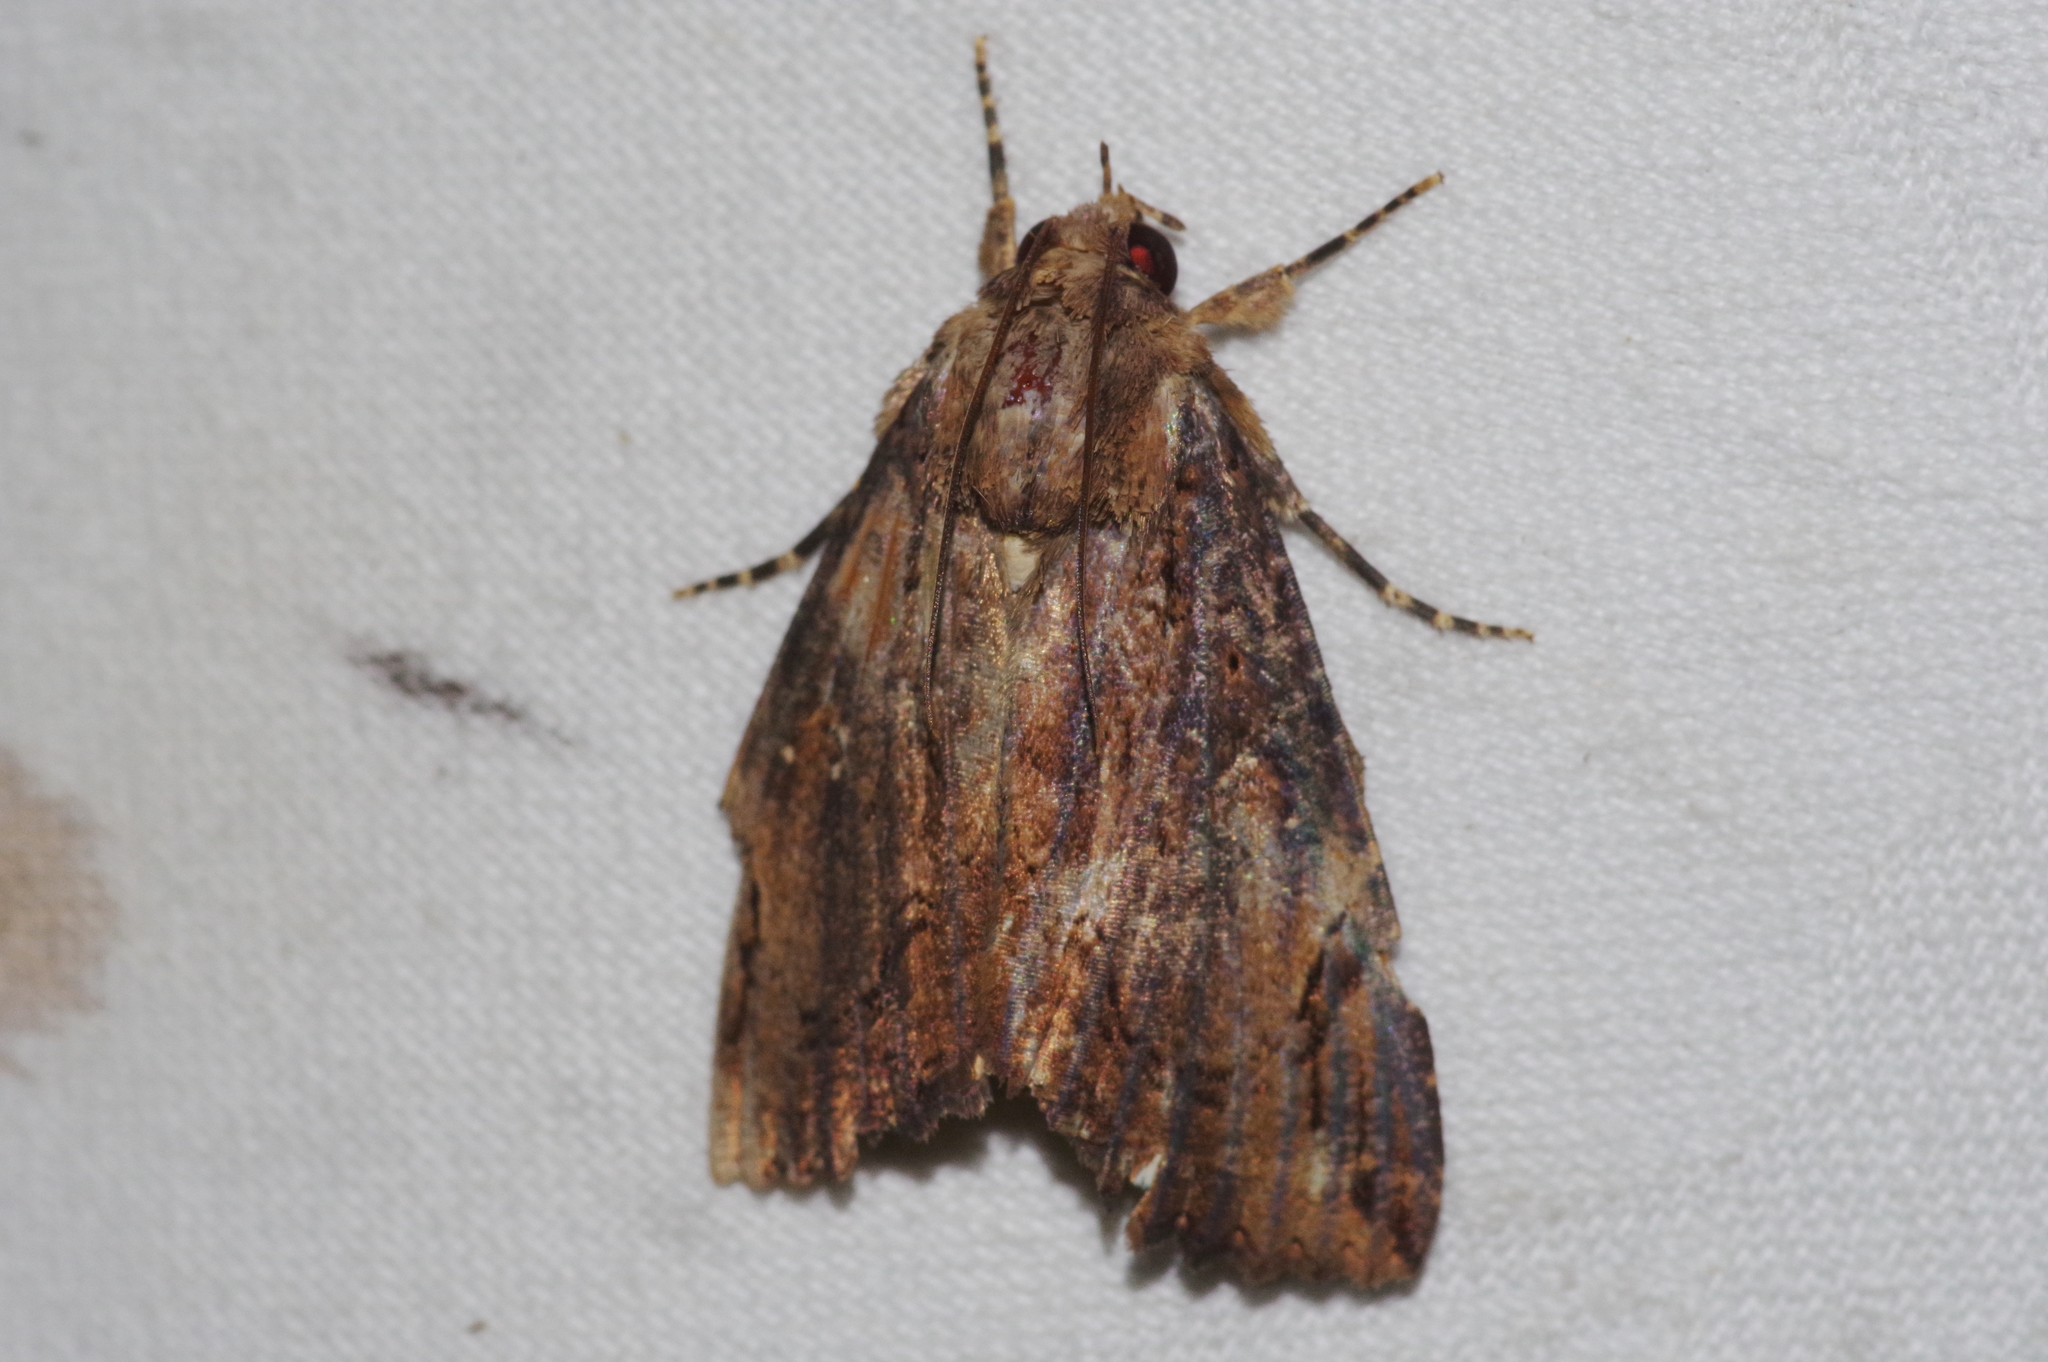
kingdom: Animalia
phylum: Arthropoda
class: Insecta
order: Lepidoptera
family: Erebidae
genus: Ercheia
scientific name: Ercheia dubia
